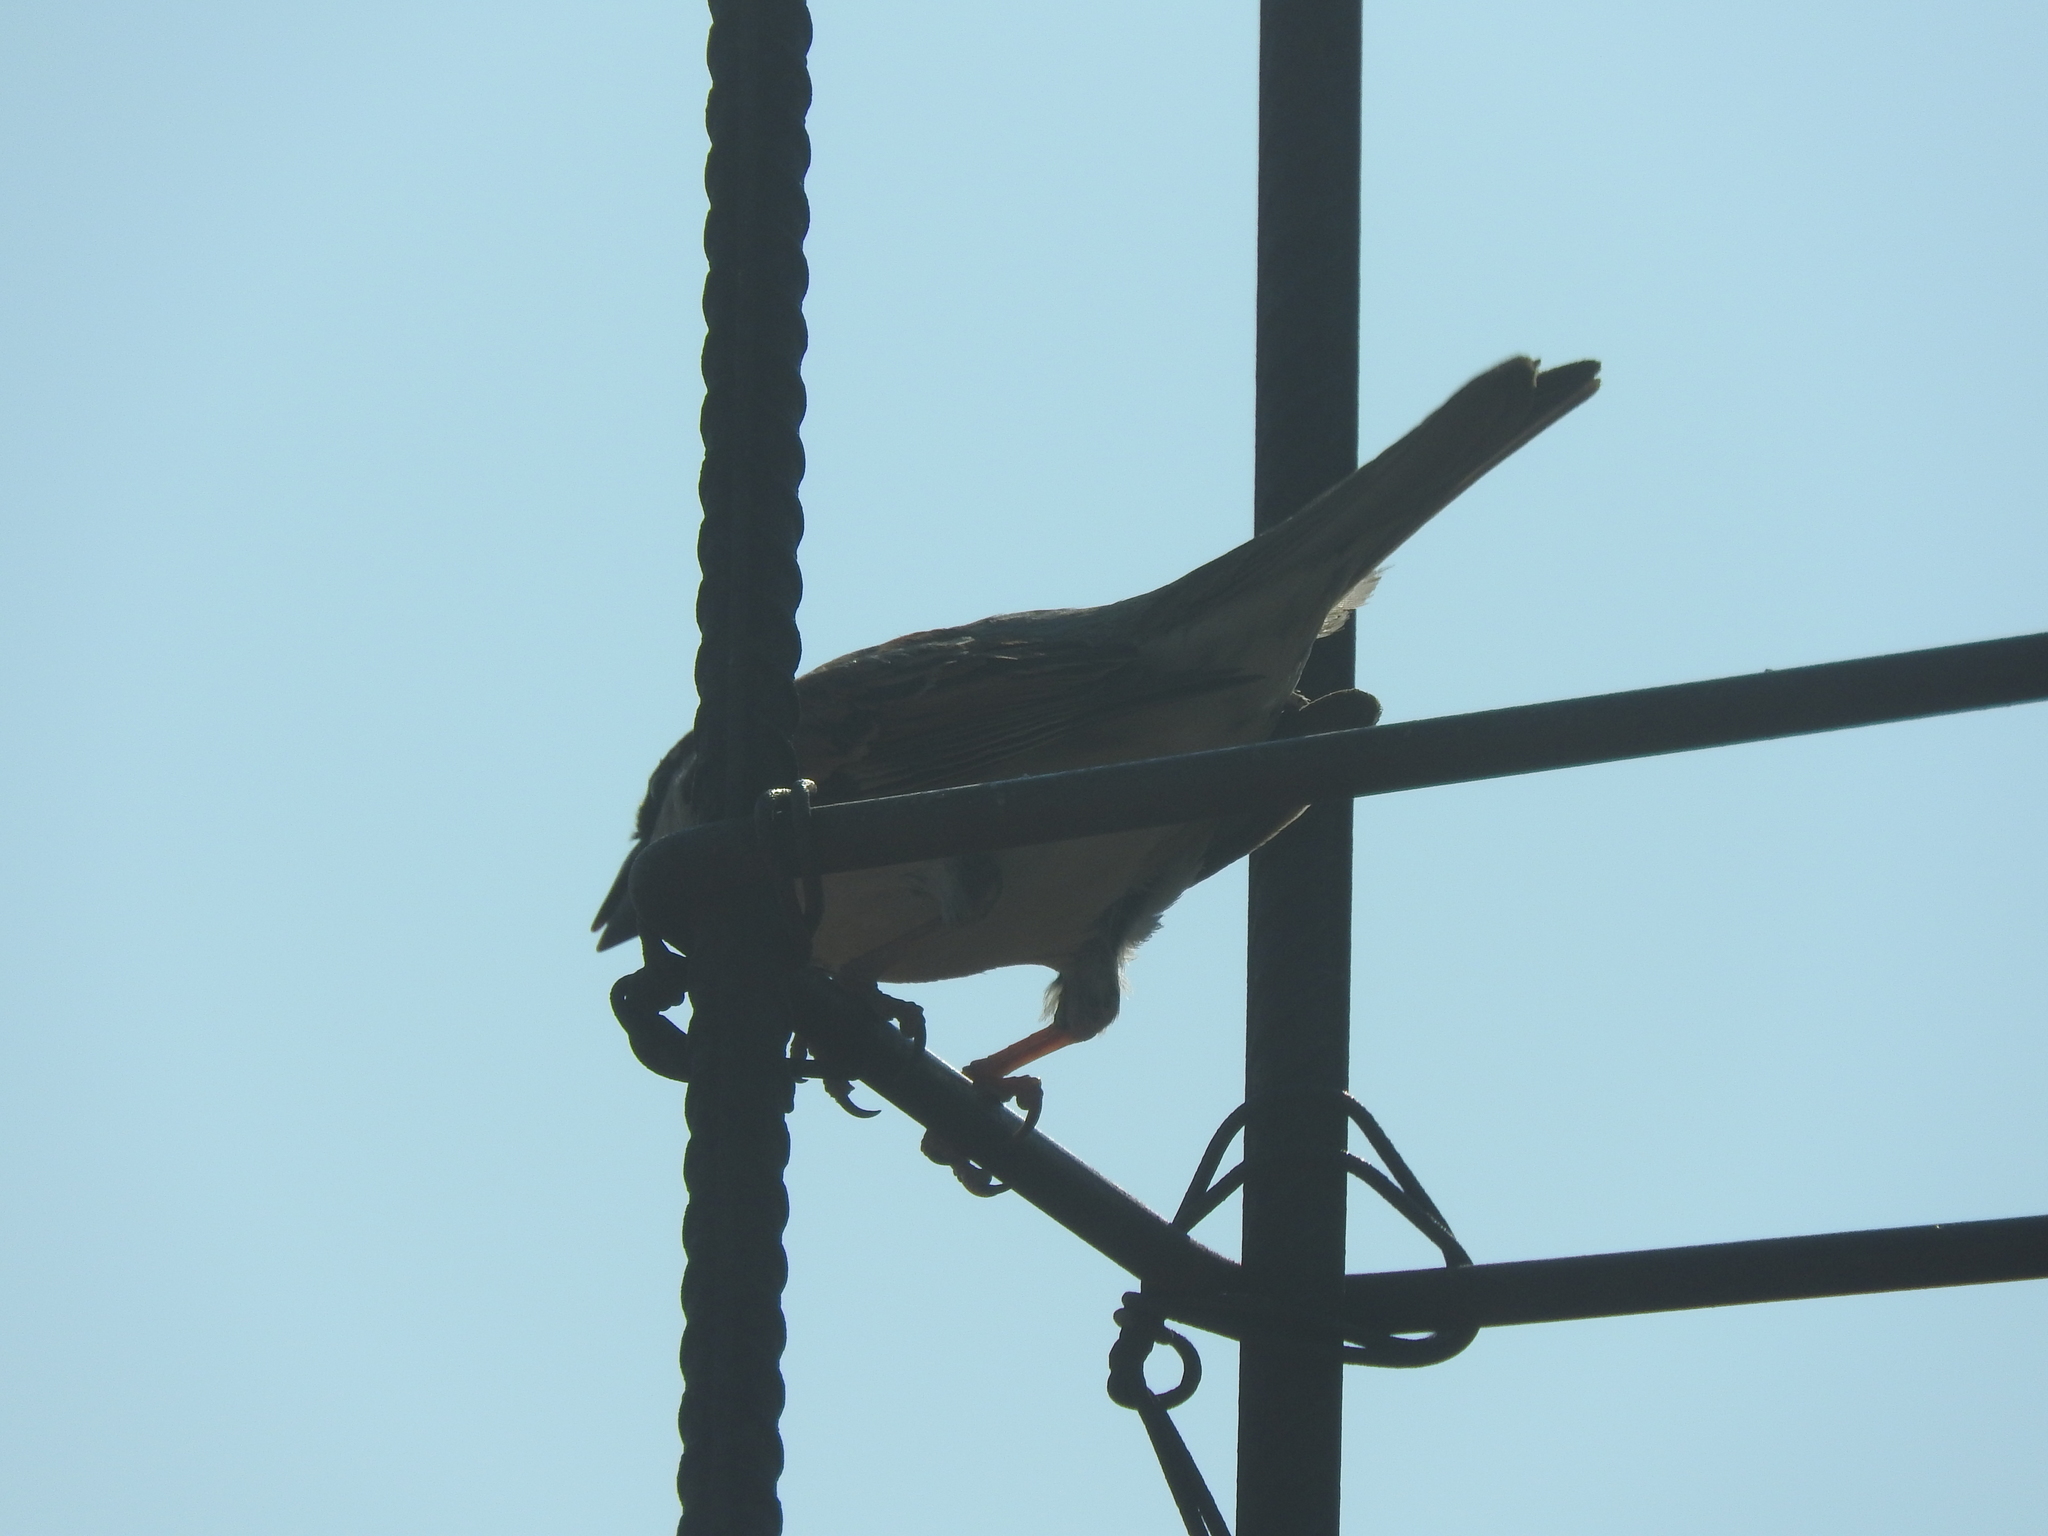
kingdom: Animalia
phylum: Chordata
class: Aves
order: Passeriformes
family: Fringillidae
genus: Haemorhous
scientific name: Haemorhous mexicanus
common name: House finch
